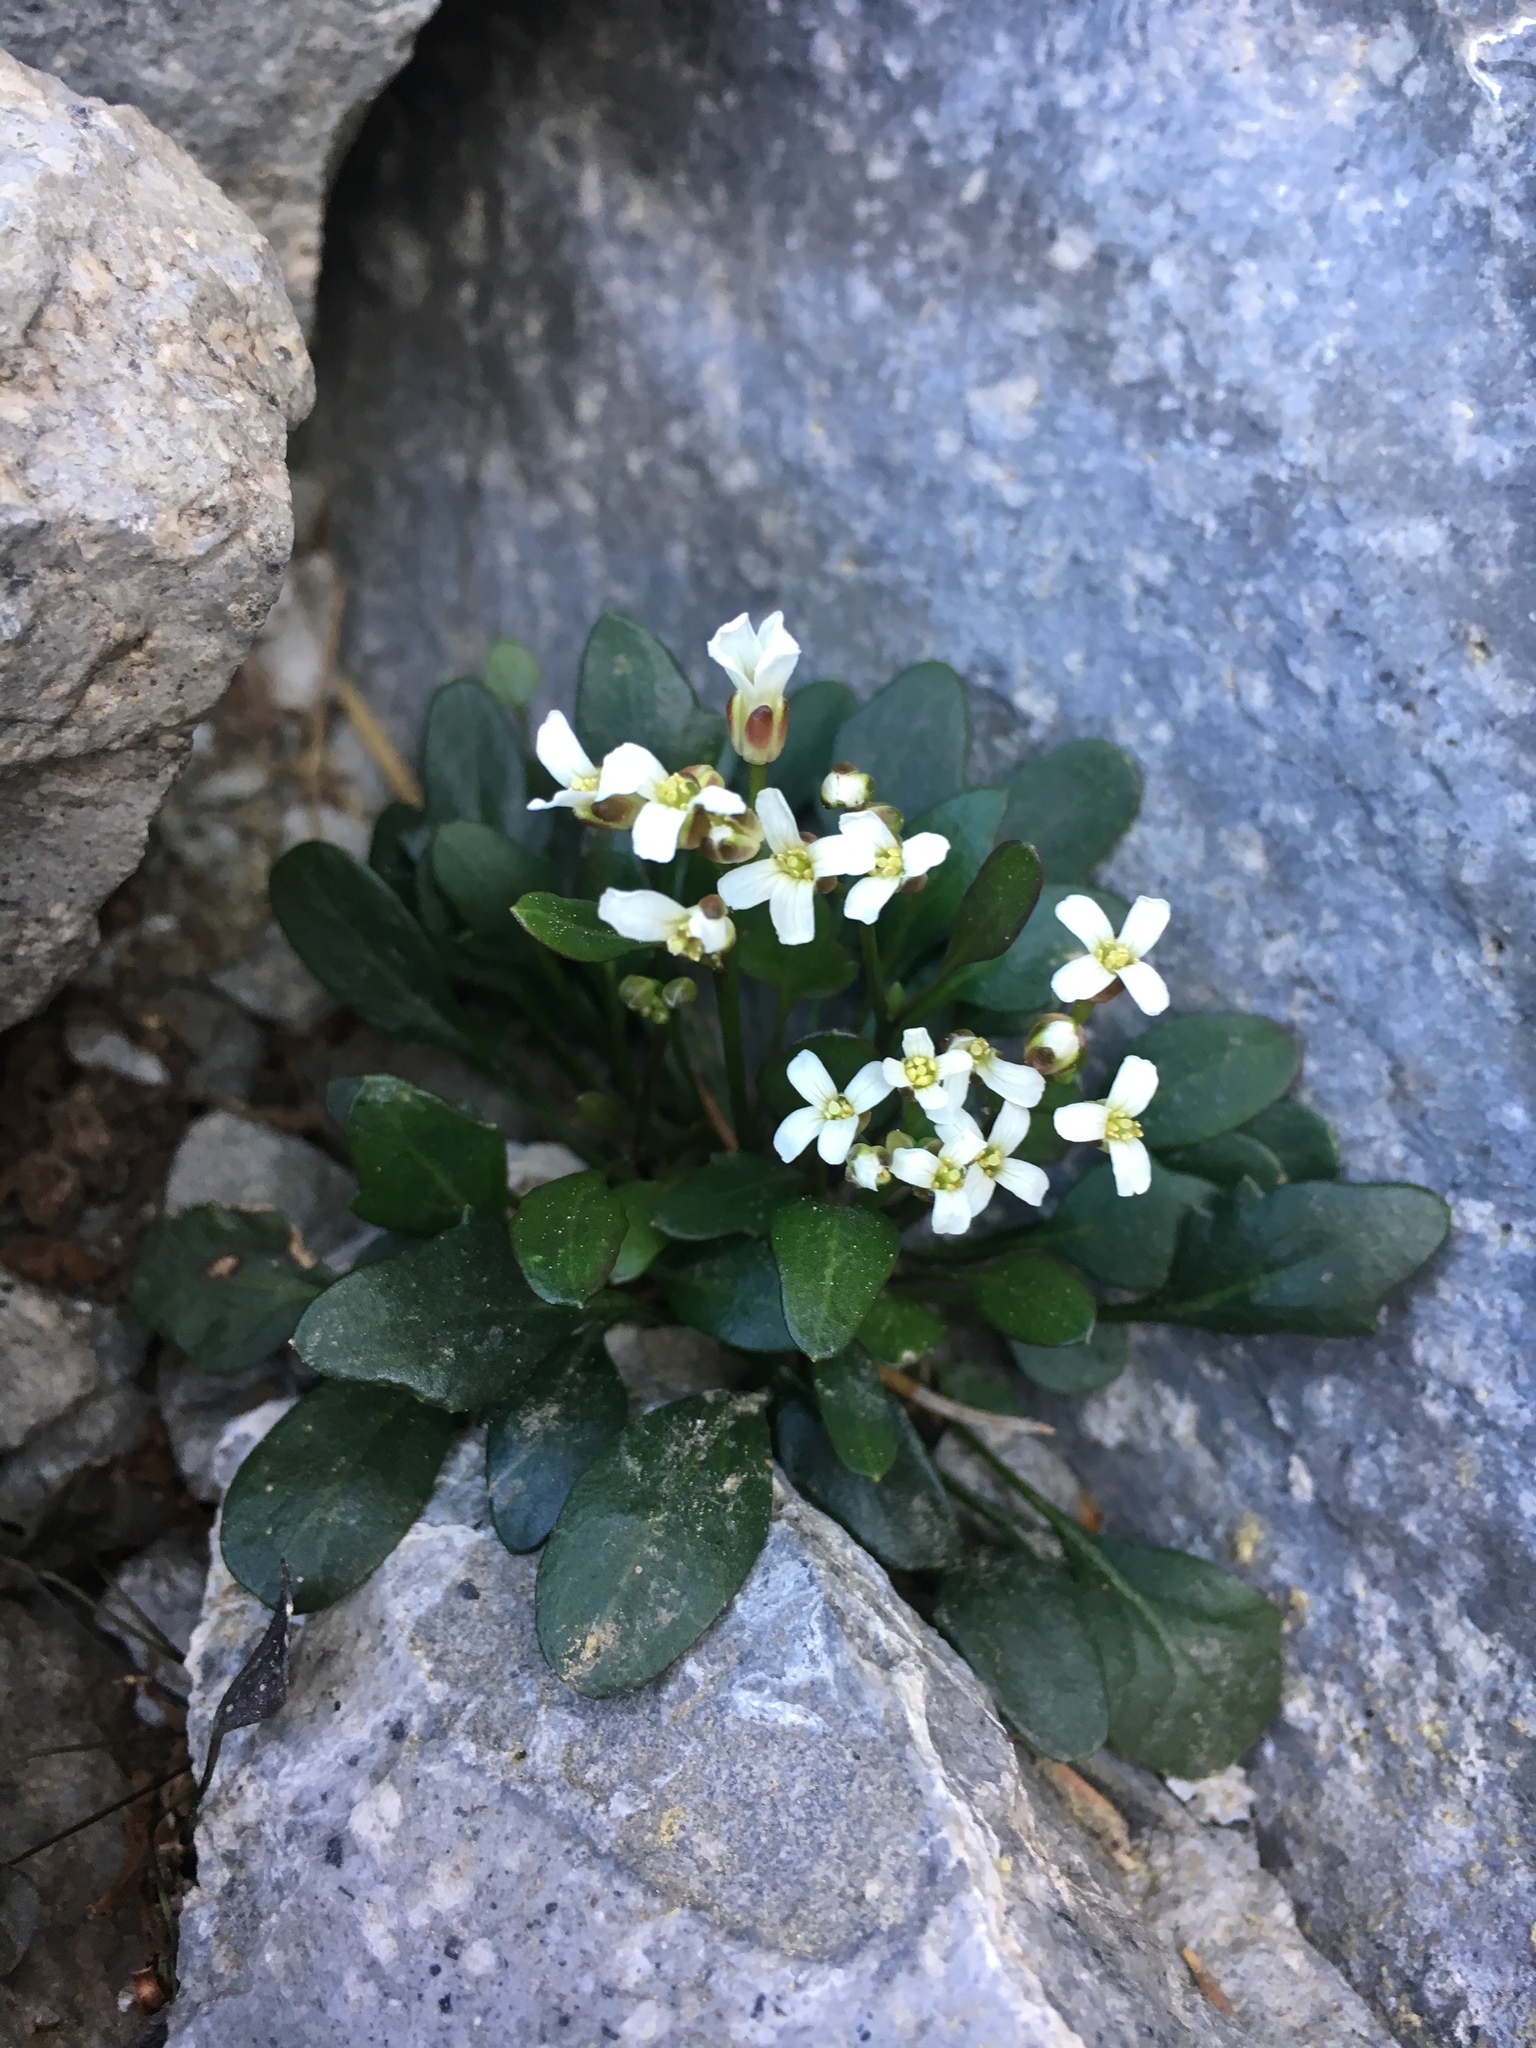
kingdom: Plantae
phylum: Tracheophyta
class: Magnoliopsida
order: Brassicales
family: Brassicaceae
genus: Cardamine
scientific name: Cardamine bellidifolia
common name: Alpine bittercress
